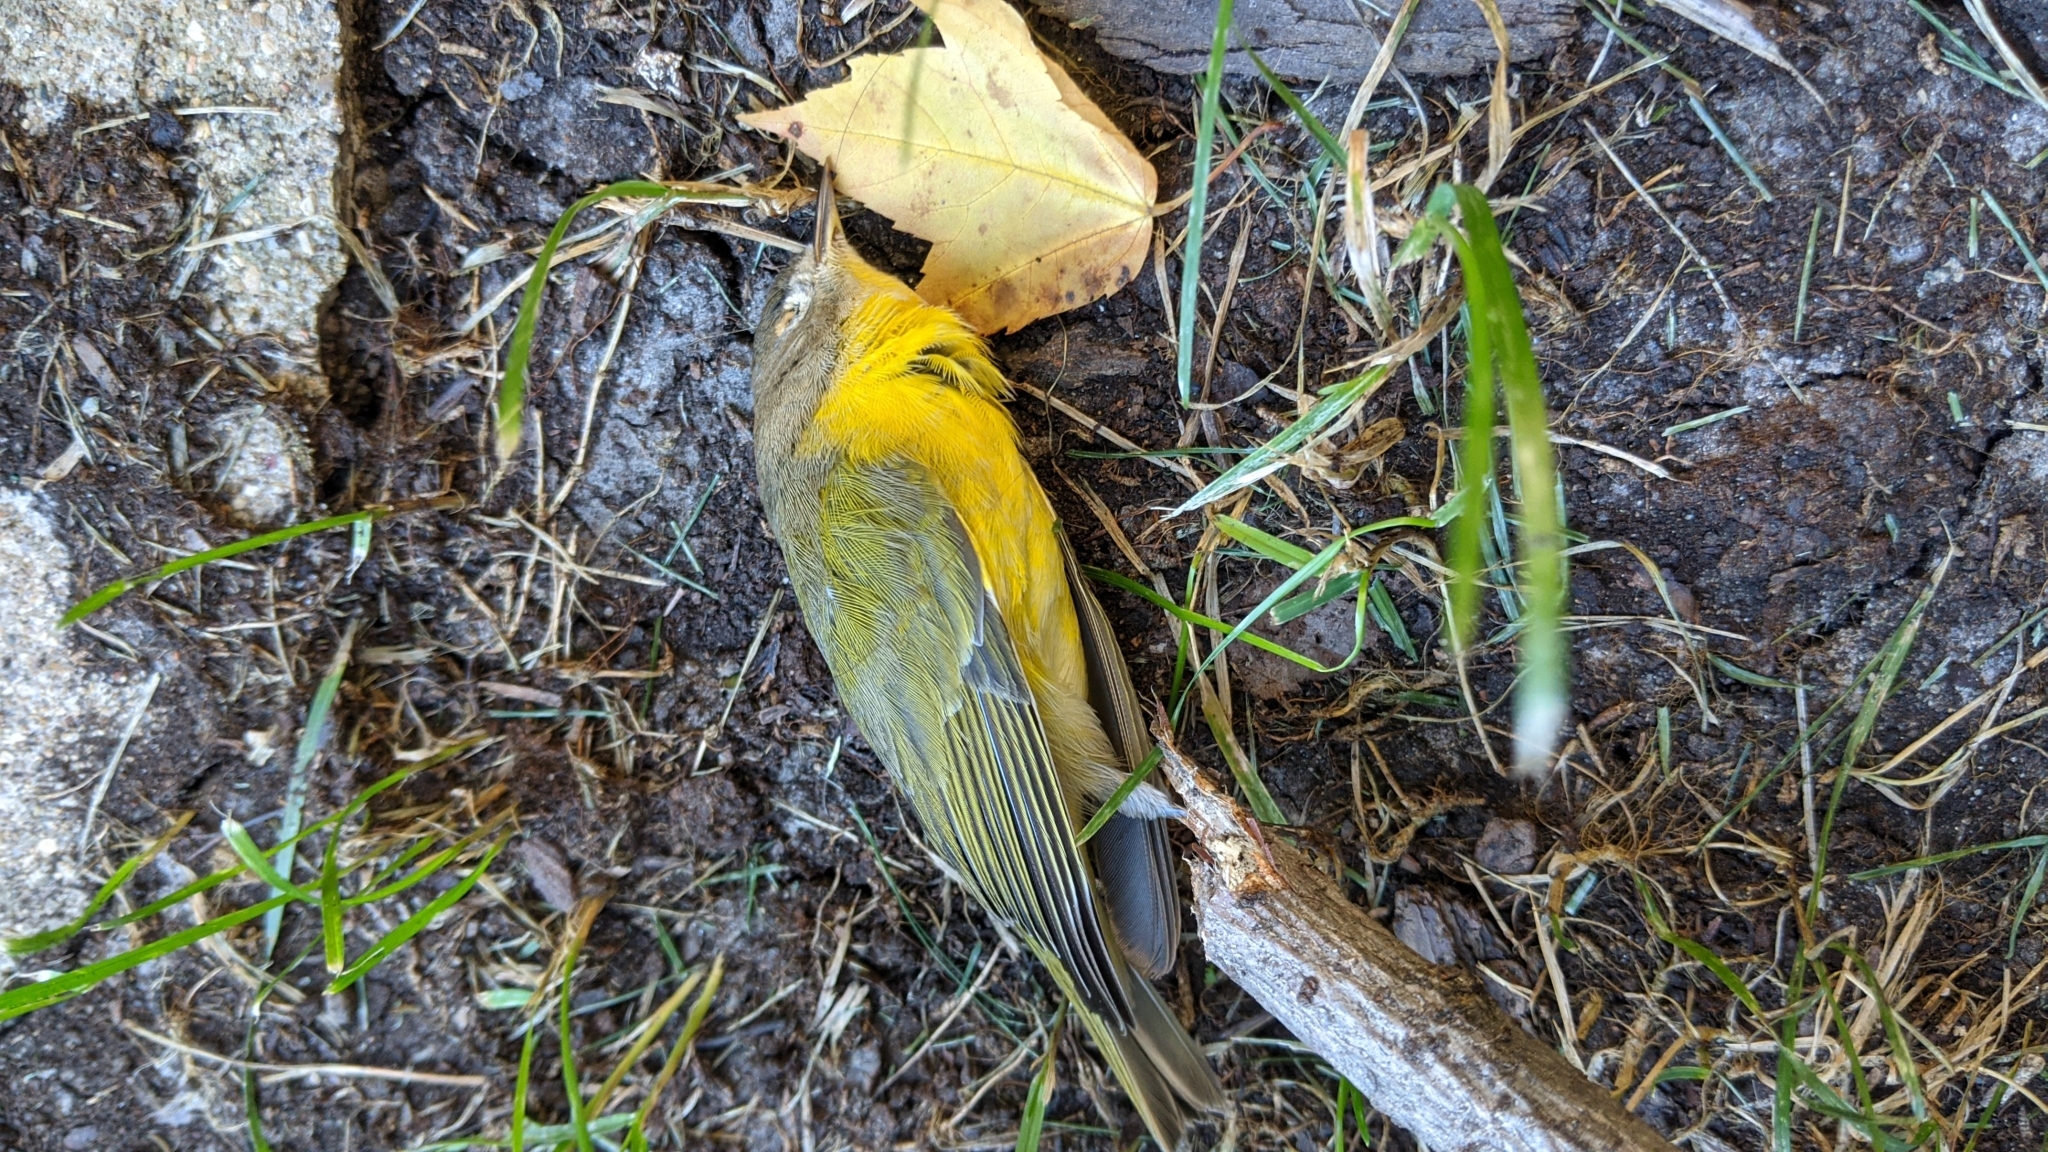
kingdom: Animalia
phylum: Chordata
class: Aves
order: Passeriformes
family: Parulidae
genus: Leiothlypis
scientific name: Leiothlypis ruficapilla
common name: Nashville warbler
